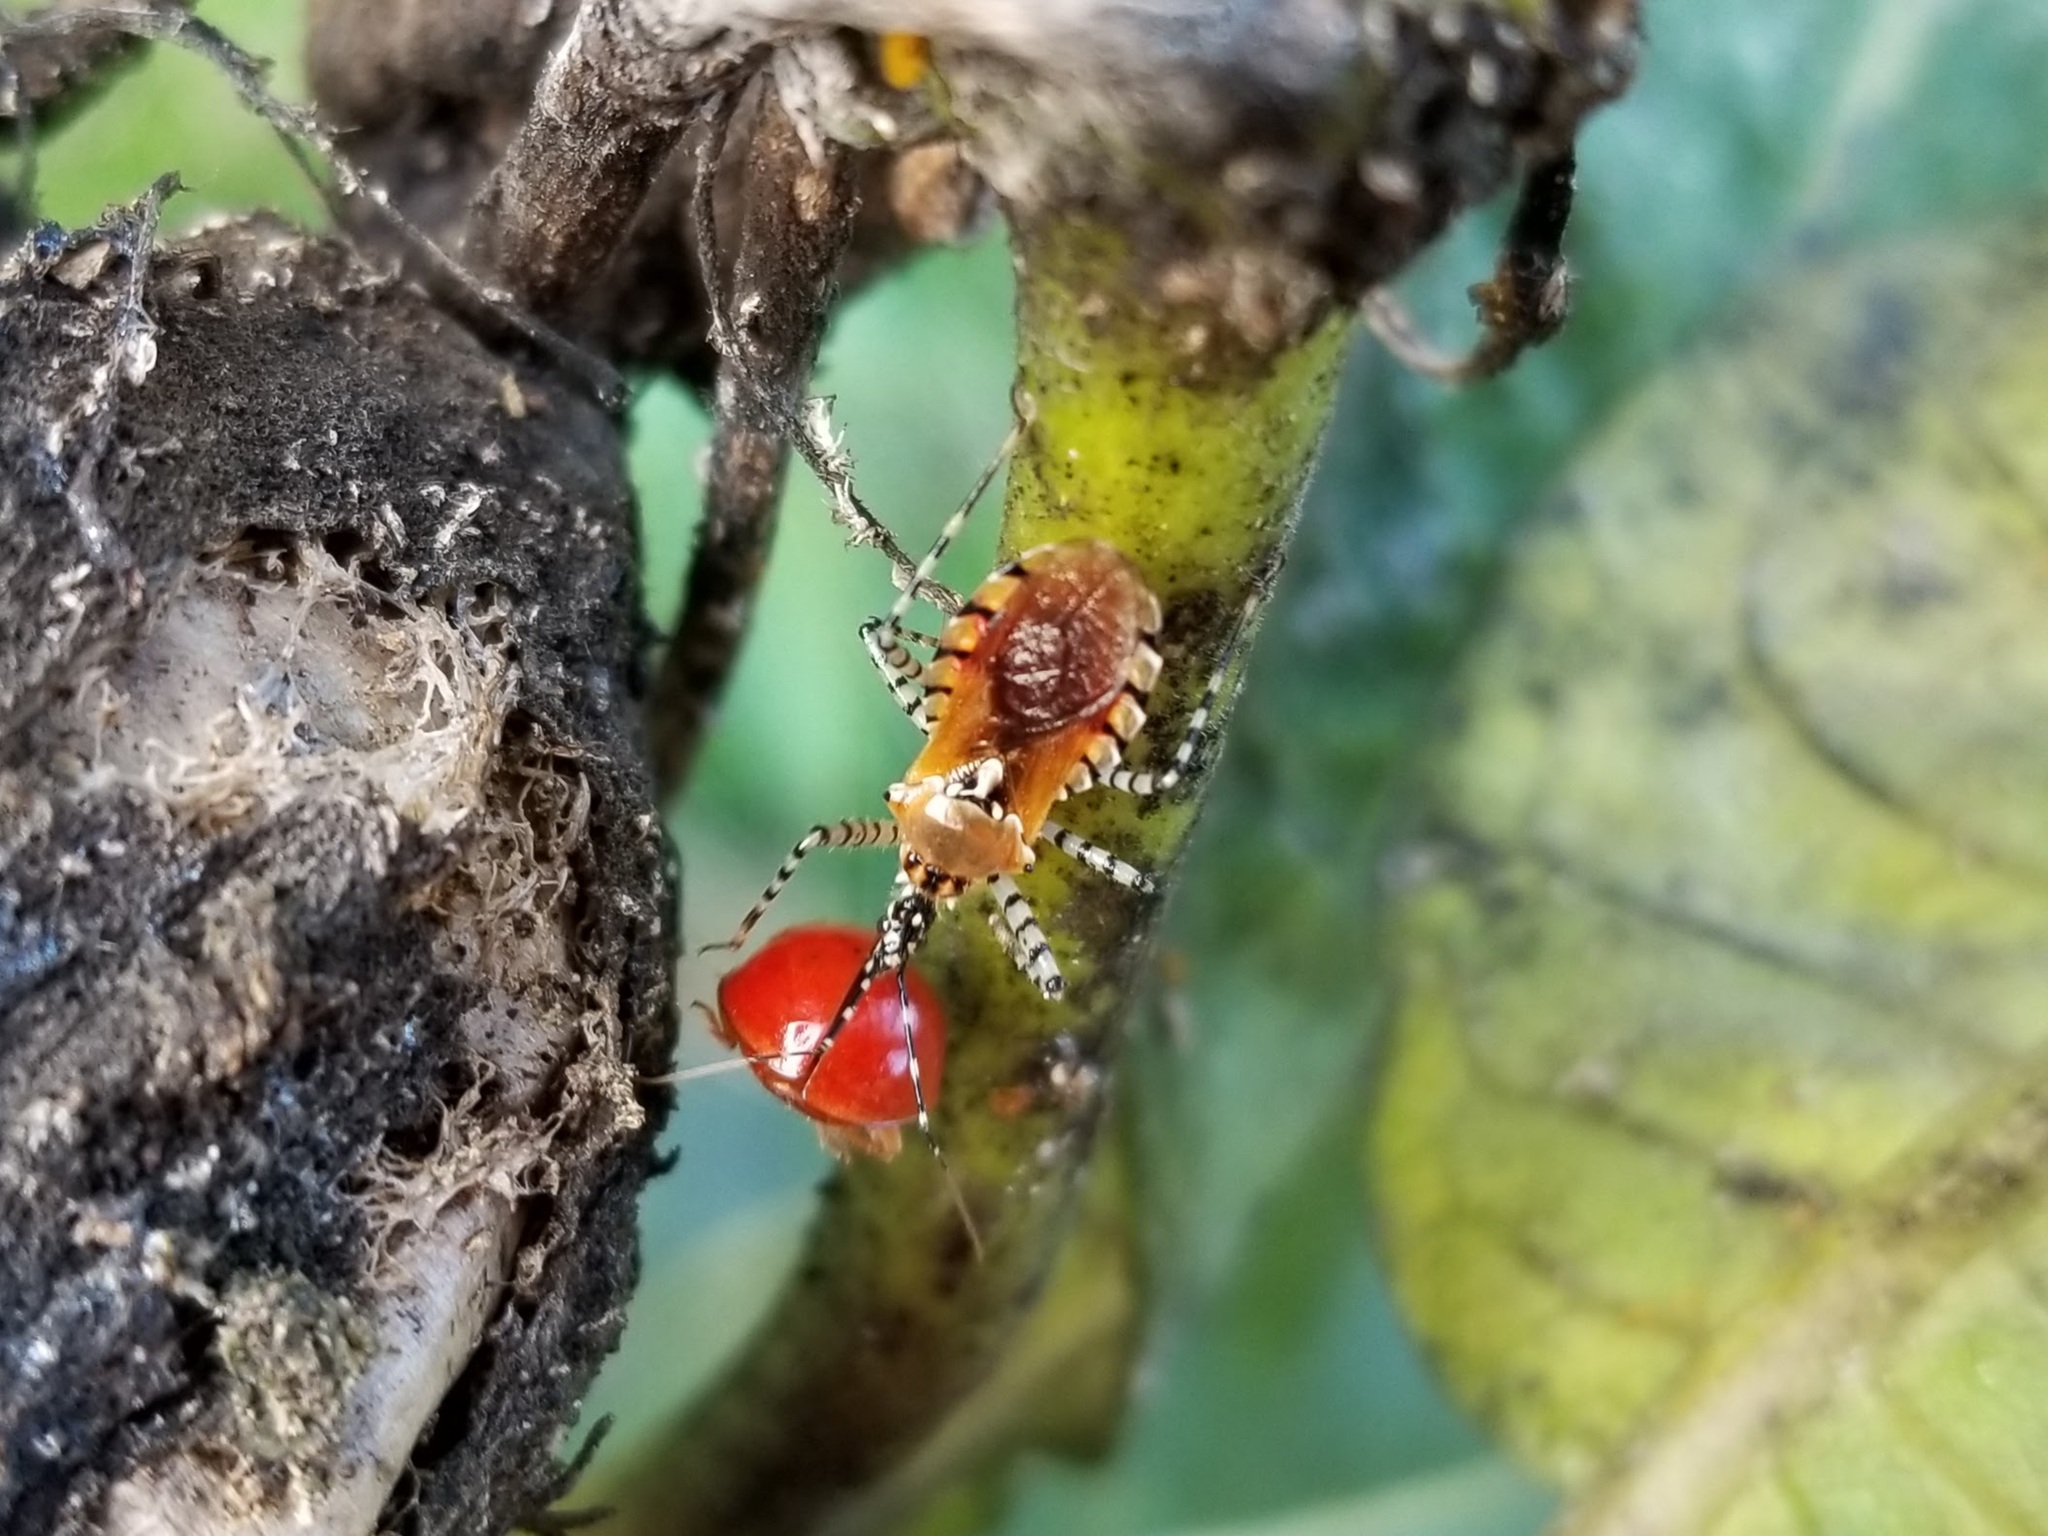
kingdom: Animalia
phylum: Arthropoda
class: Insecta
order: Hemiptera
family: Reduviidae
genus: Pselliopus
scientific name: Pselliopus cinctus
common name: Ringed assassin bug
